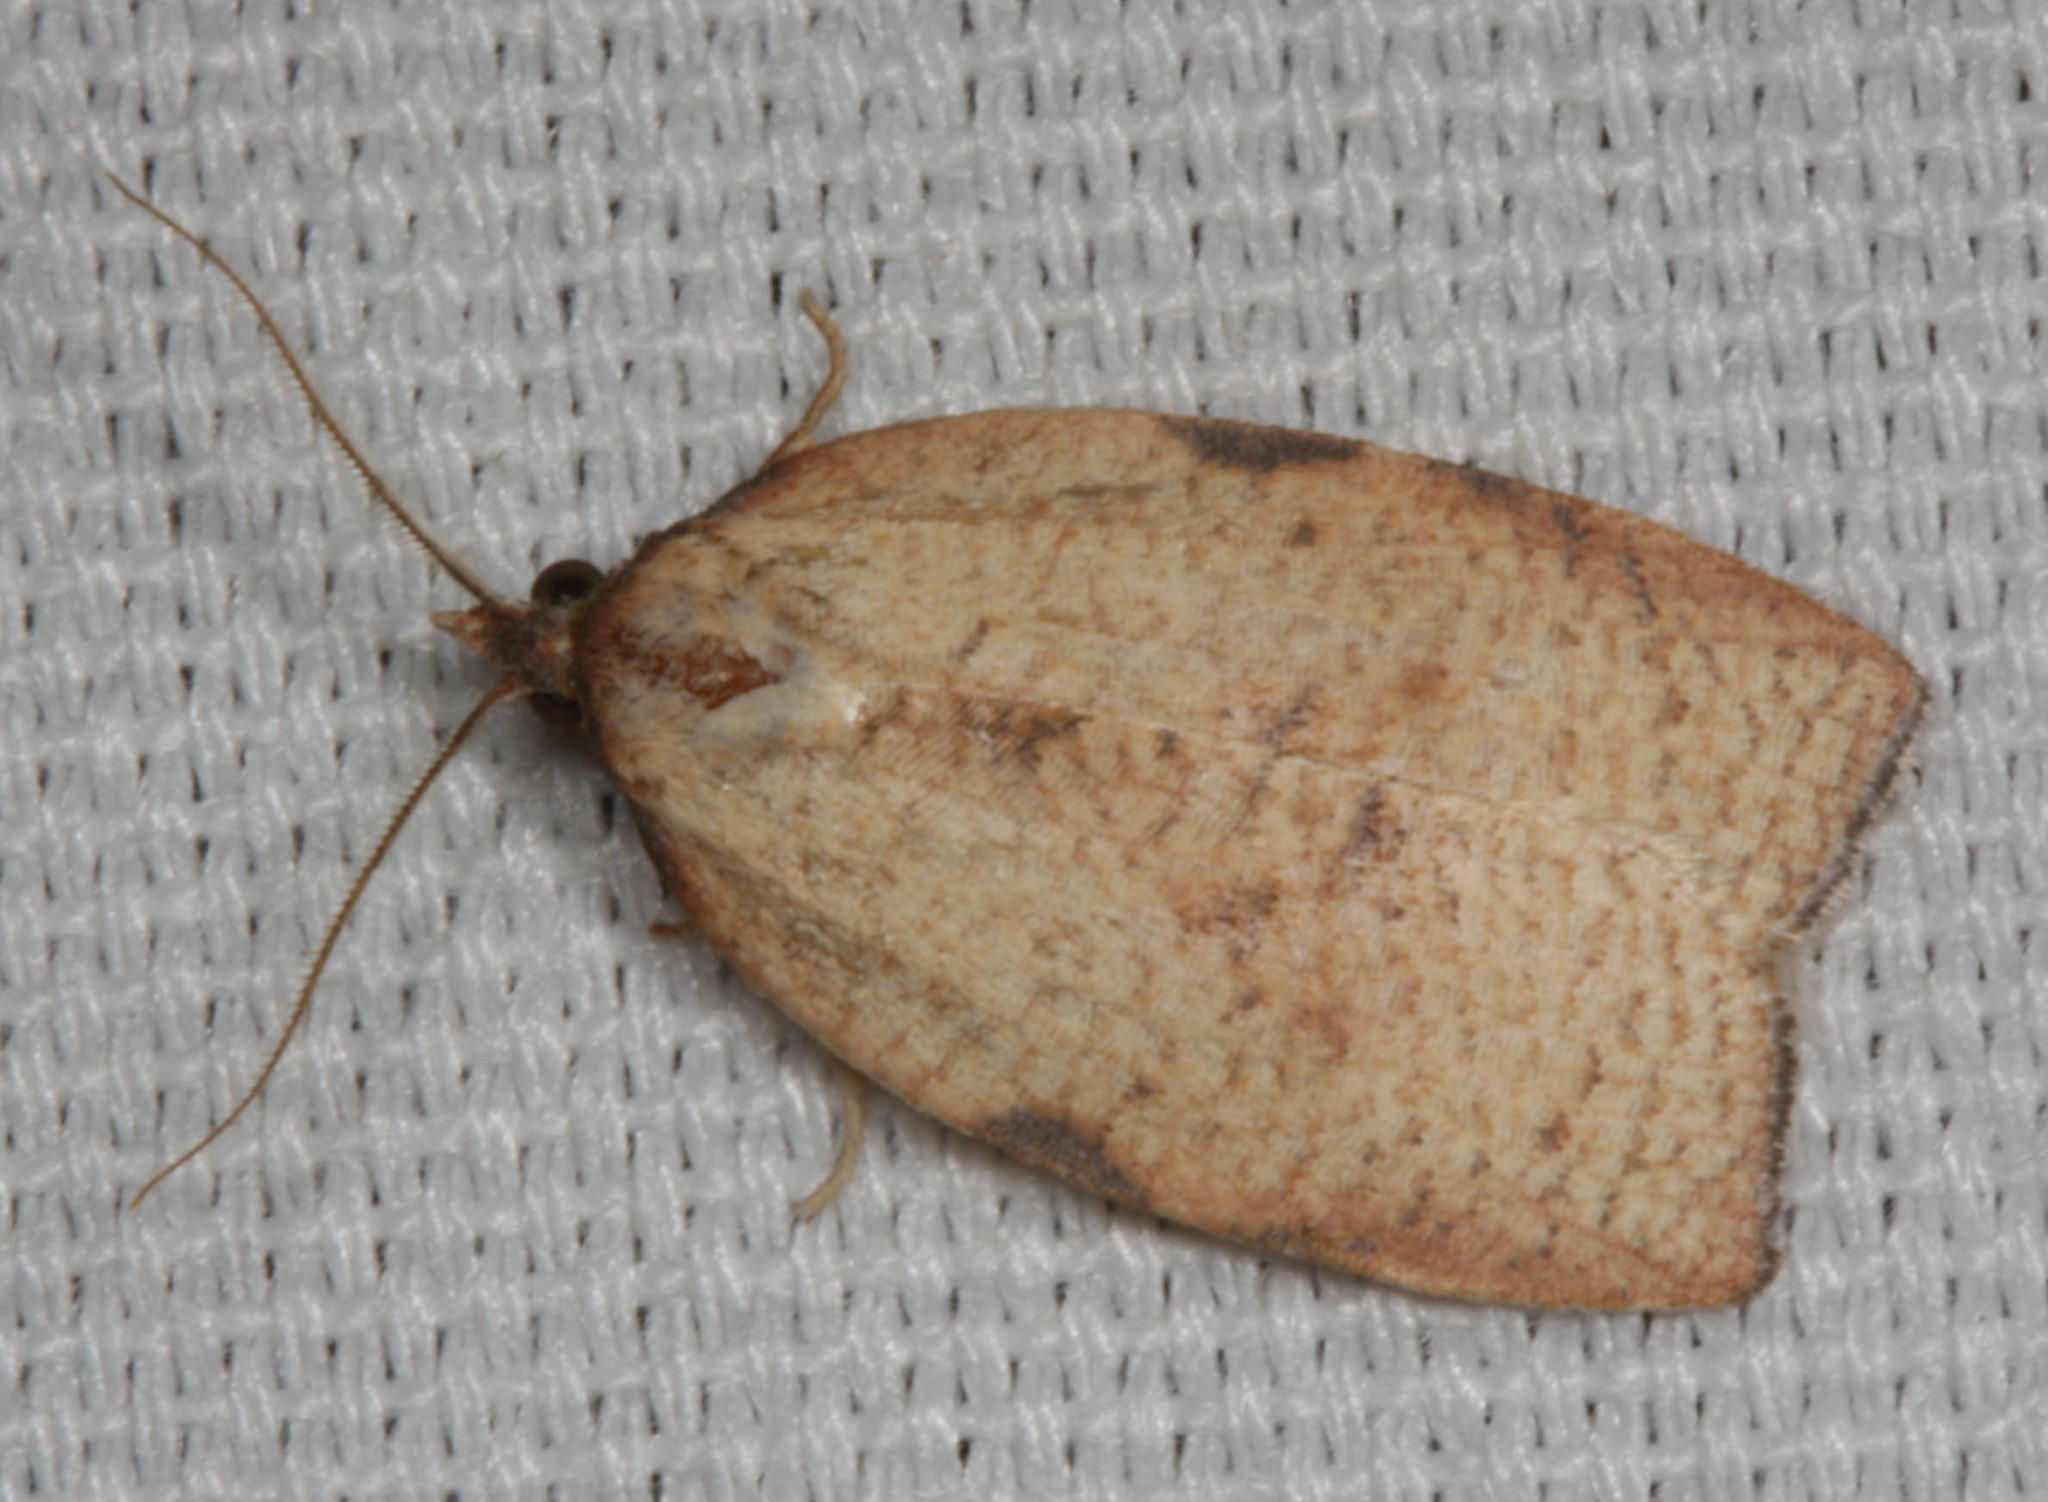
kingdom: Animalia
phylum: Arthropoda
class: Insecta
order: Lepidoptera
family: Tortricidae
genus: Amorbia
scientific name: Amorbia cuneanum
